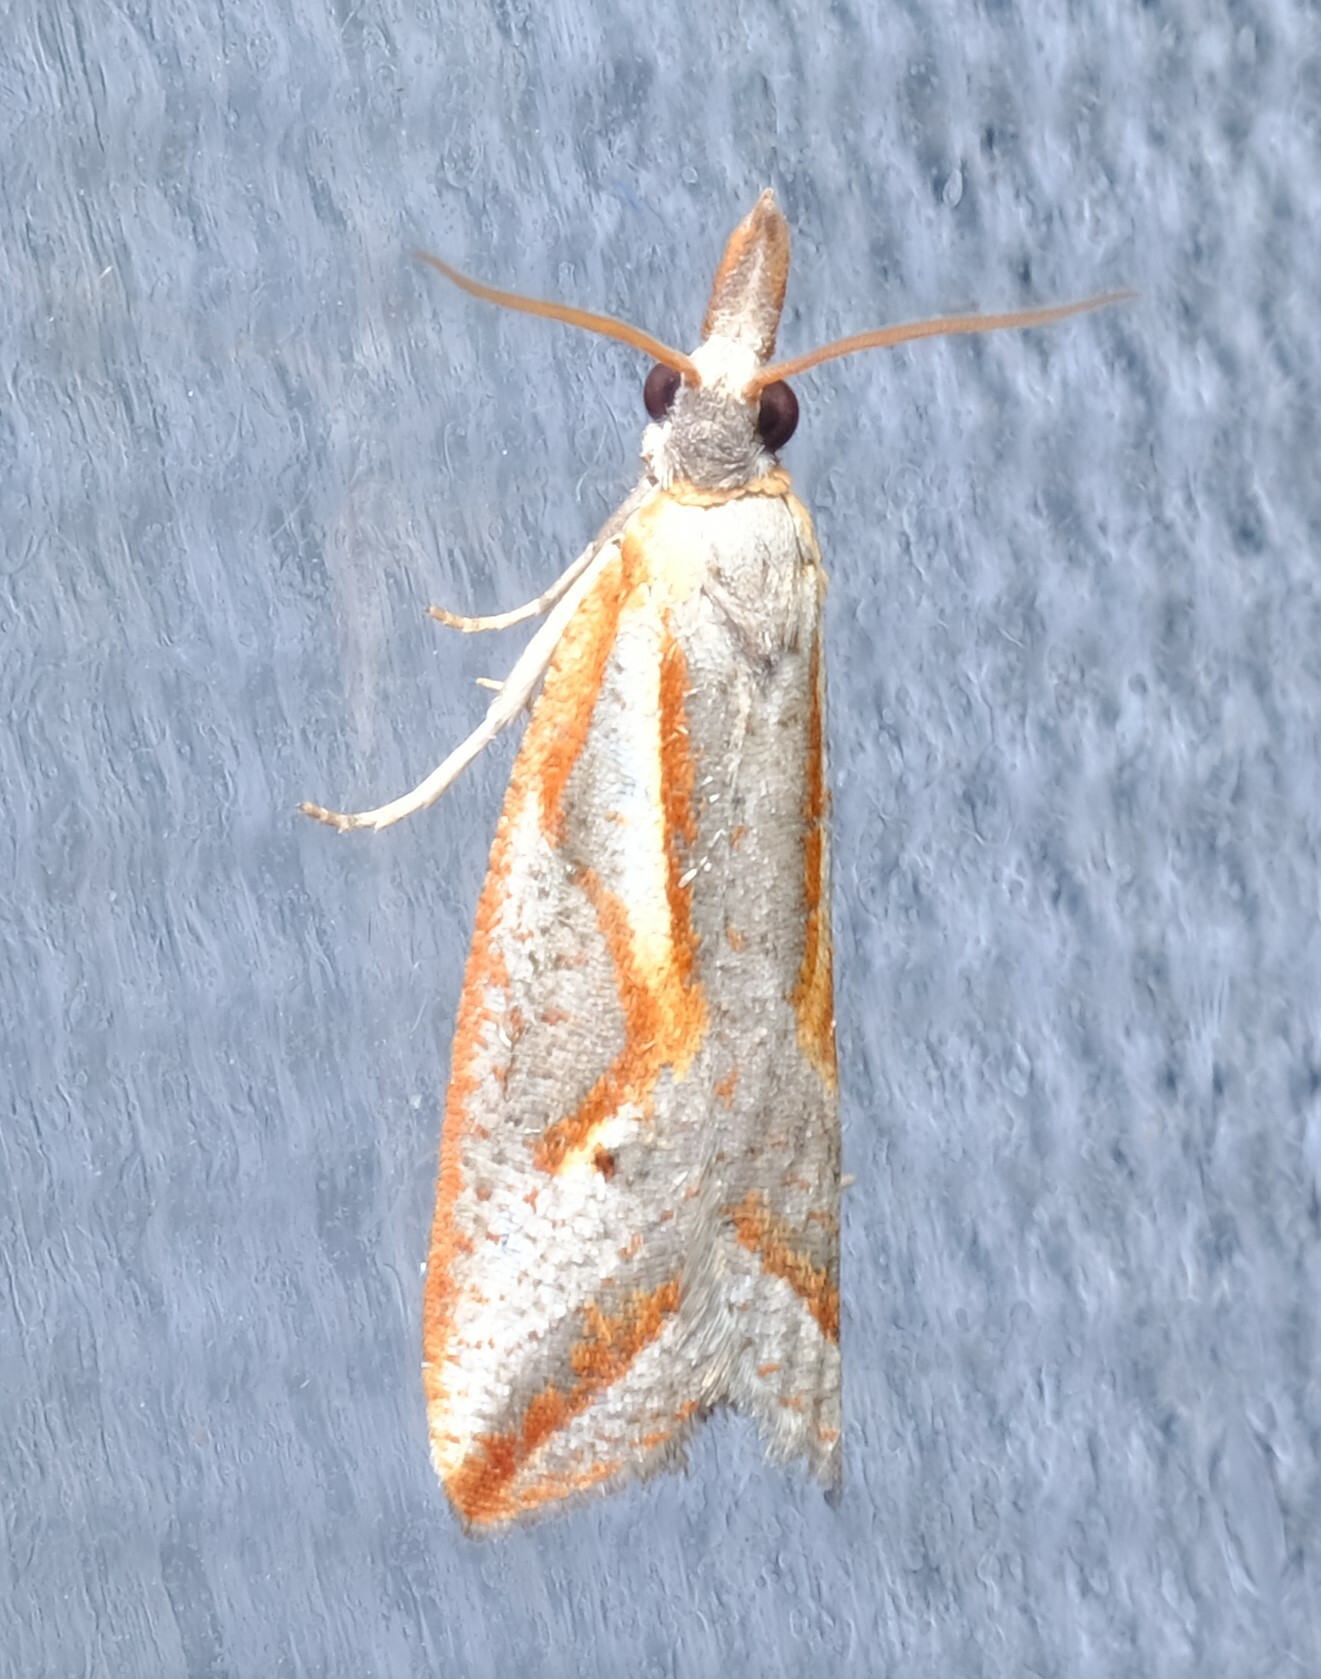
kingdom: Animalia
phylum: Arthropoda
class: Insecta
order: Lepidoptera
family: Tortricidae
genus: Arotrophora
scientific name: Arotrophora arcuatalis
